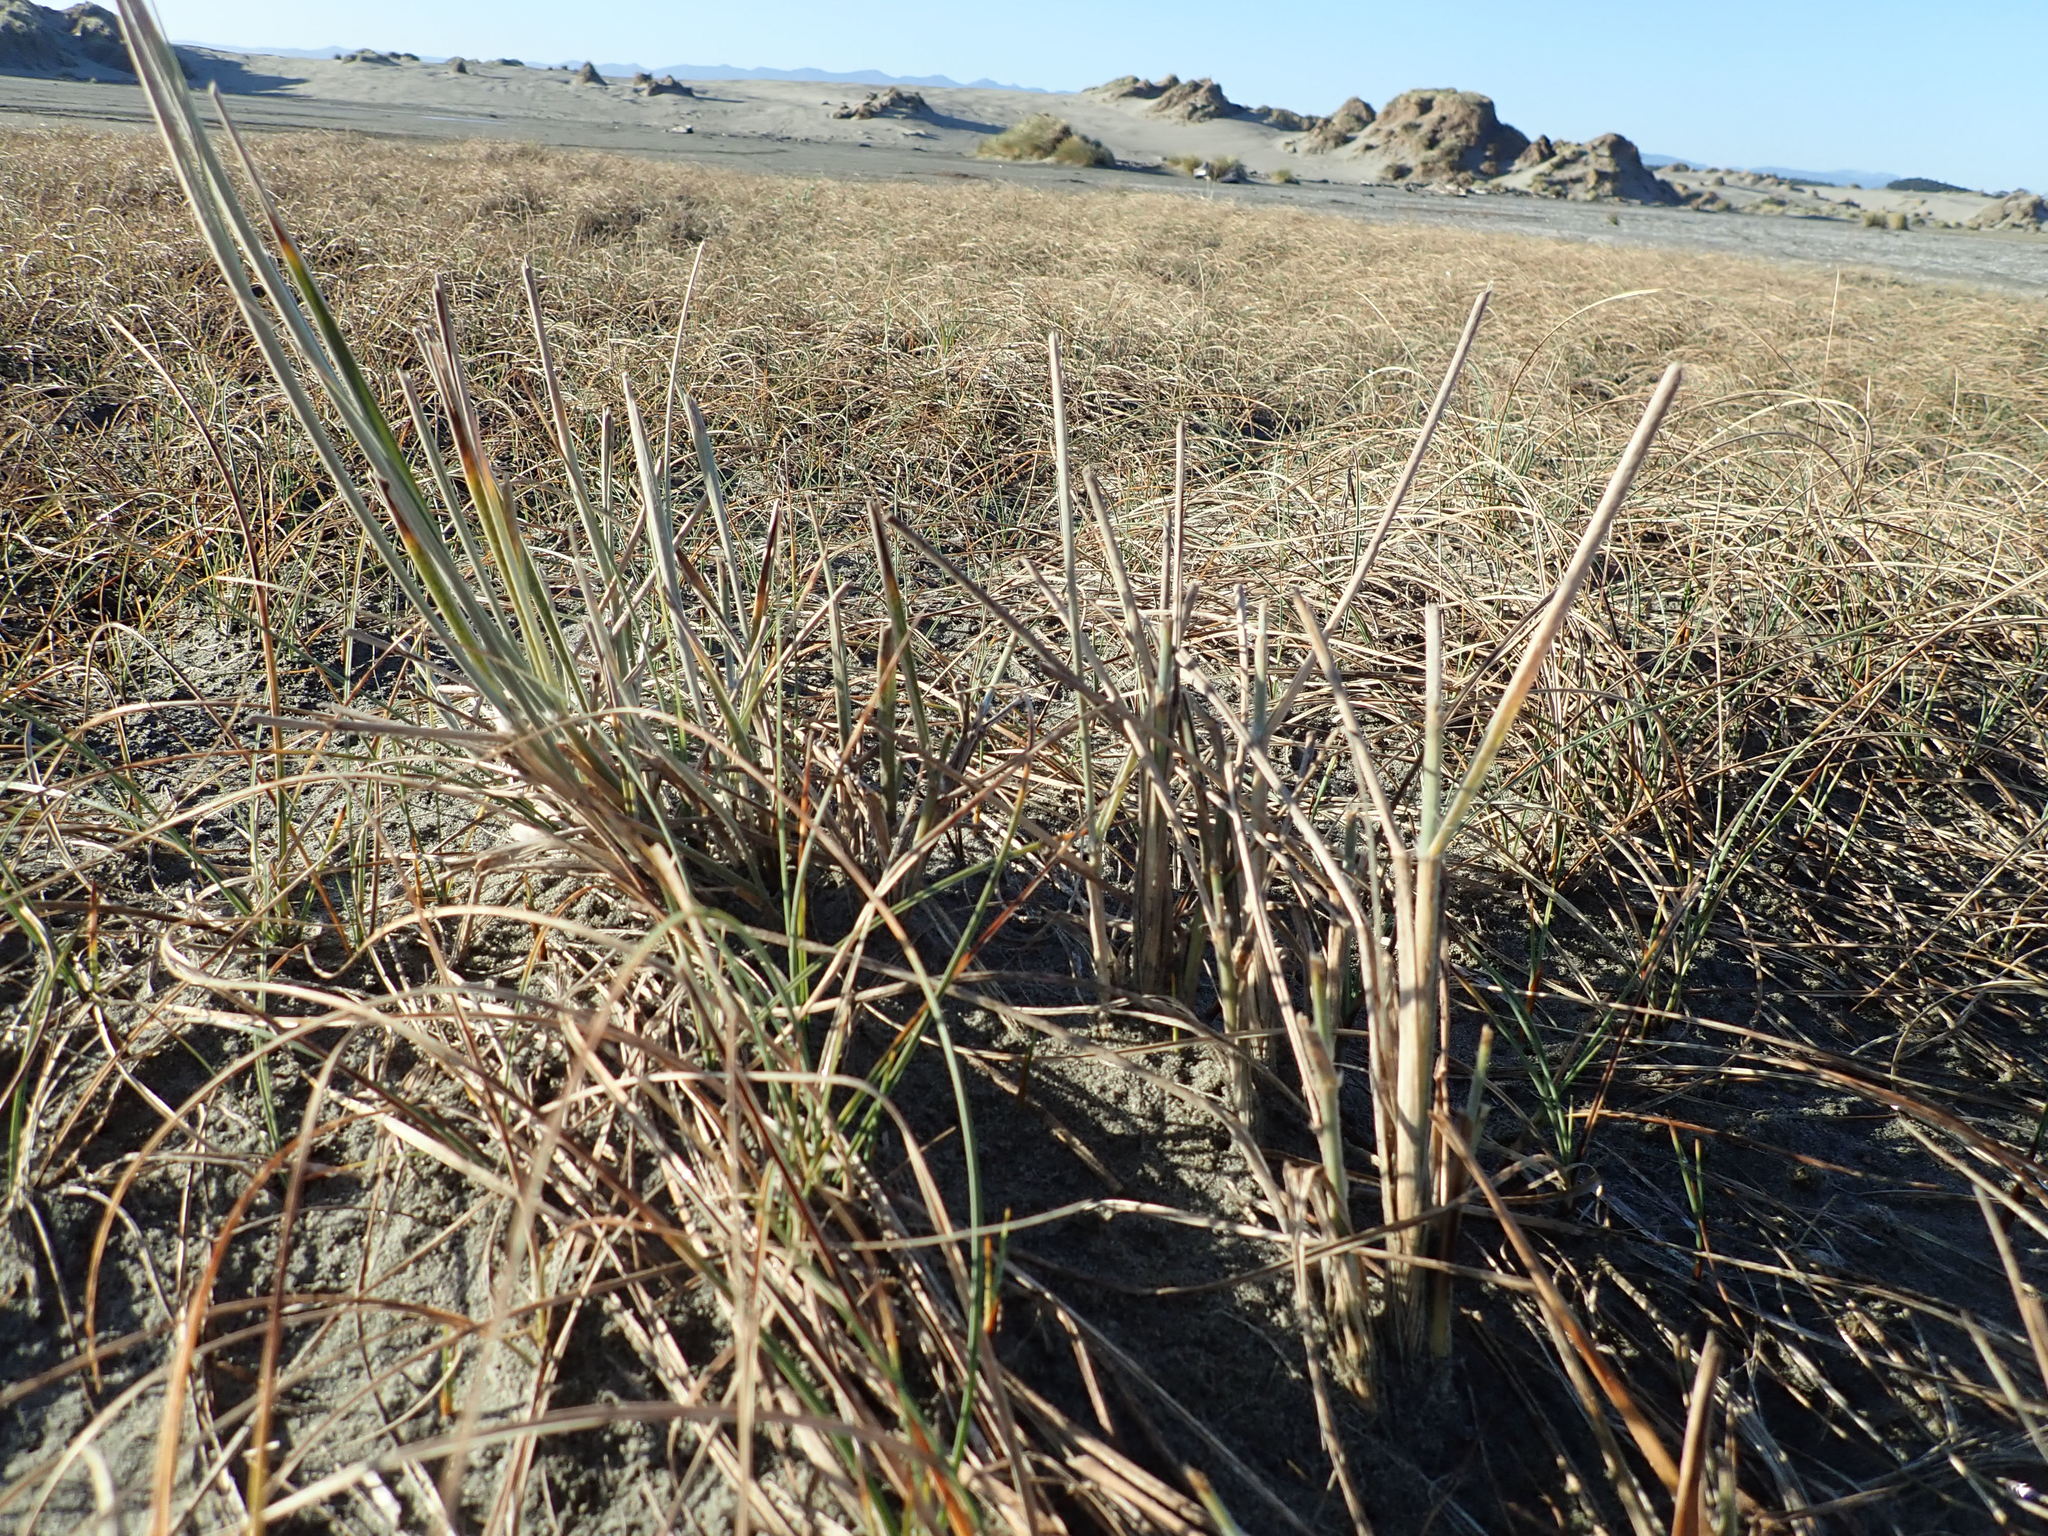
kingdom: Plantae
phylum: Tracheophyta
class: Liliopsida
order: Poales
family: Poaceae
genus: Spinifex
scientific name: Spinifex sericeus
